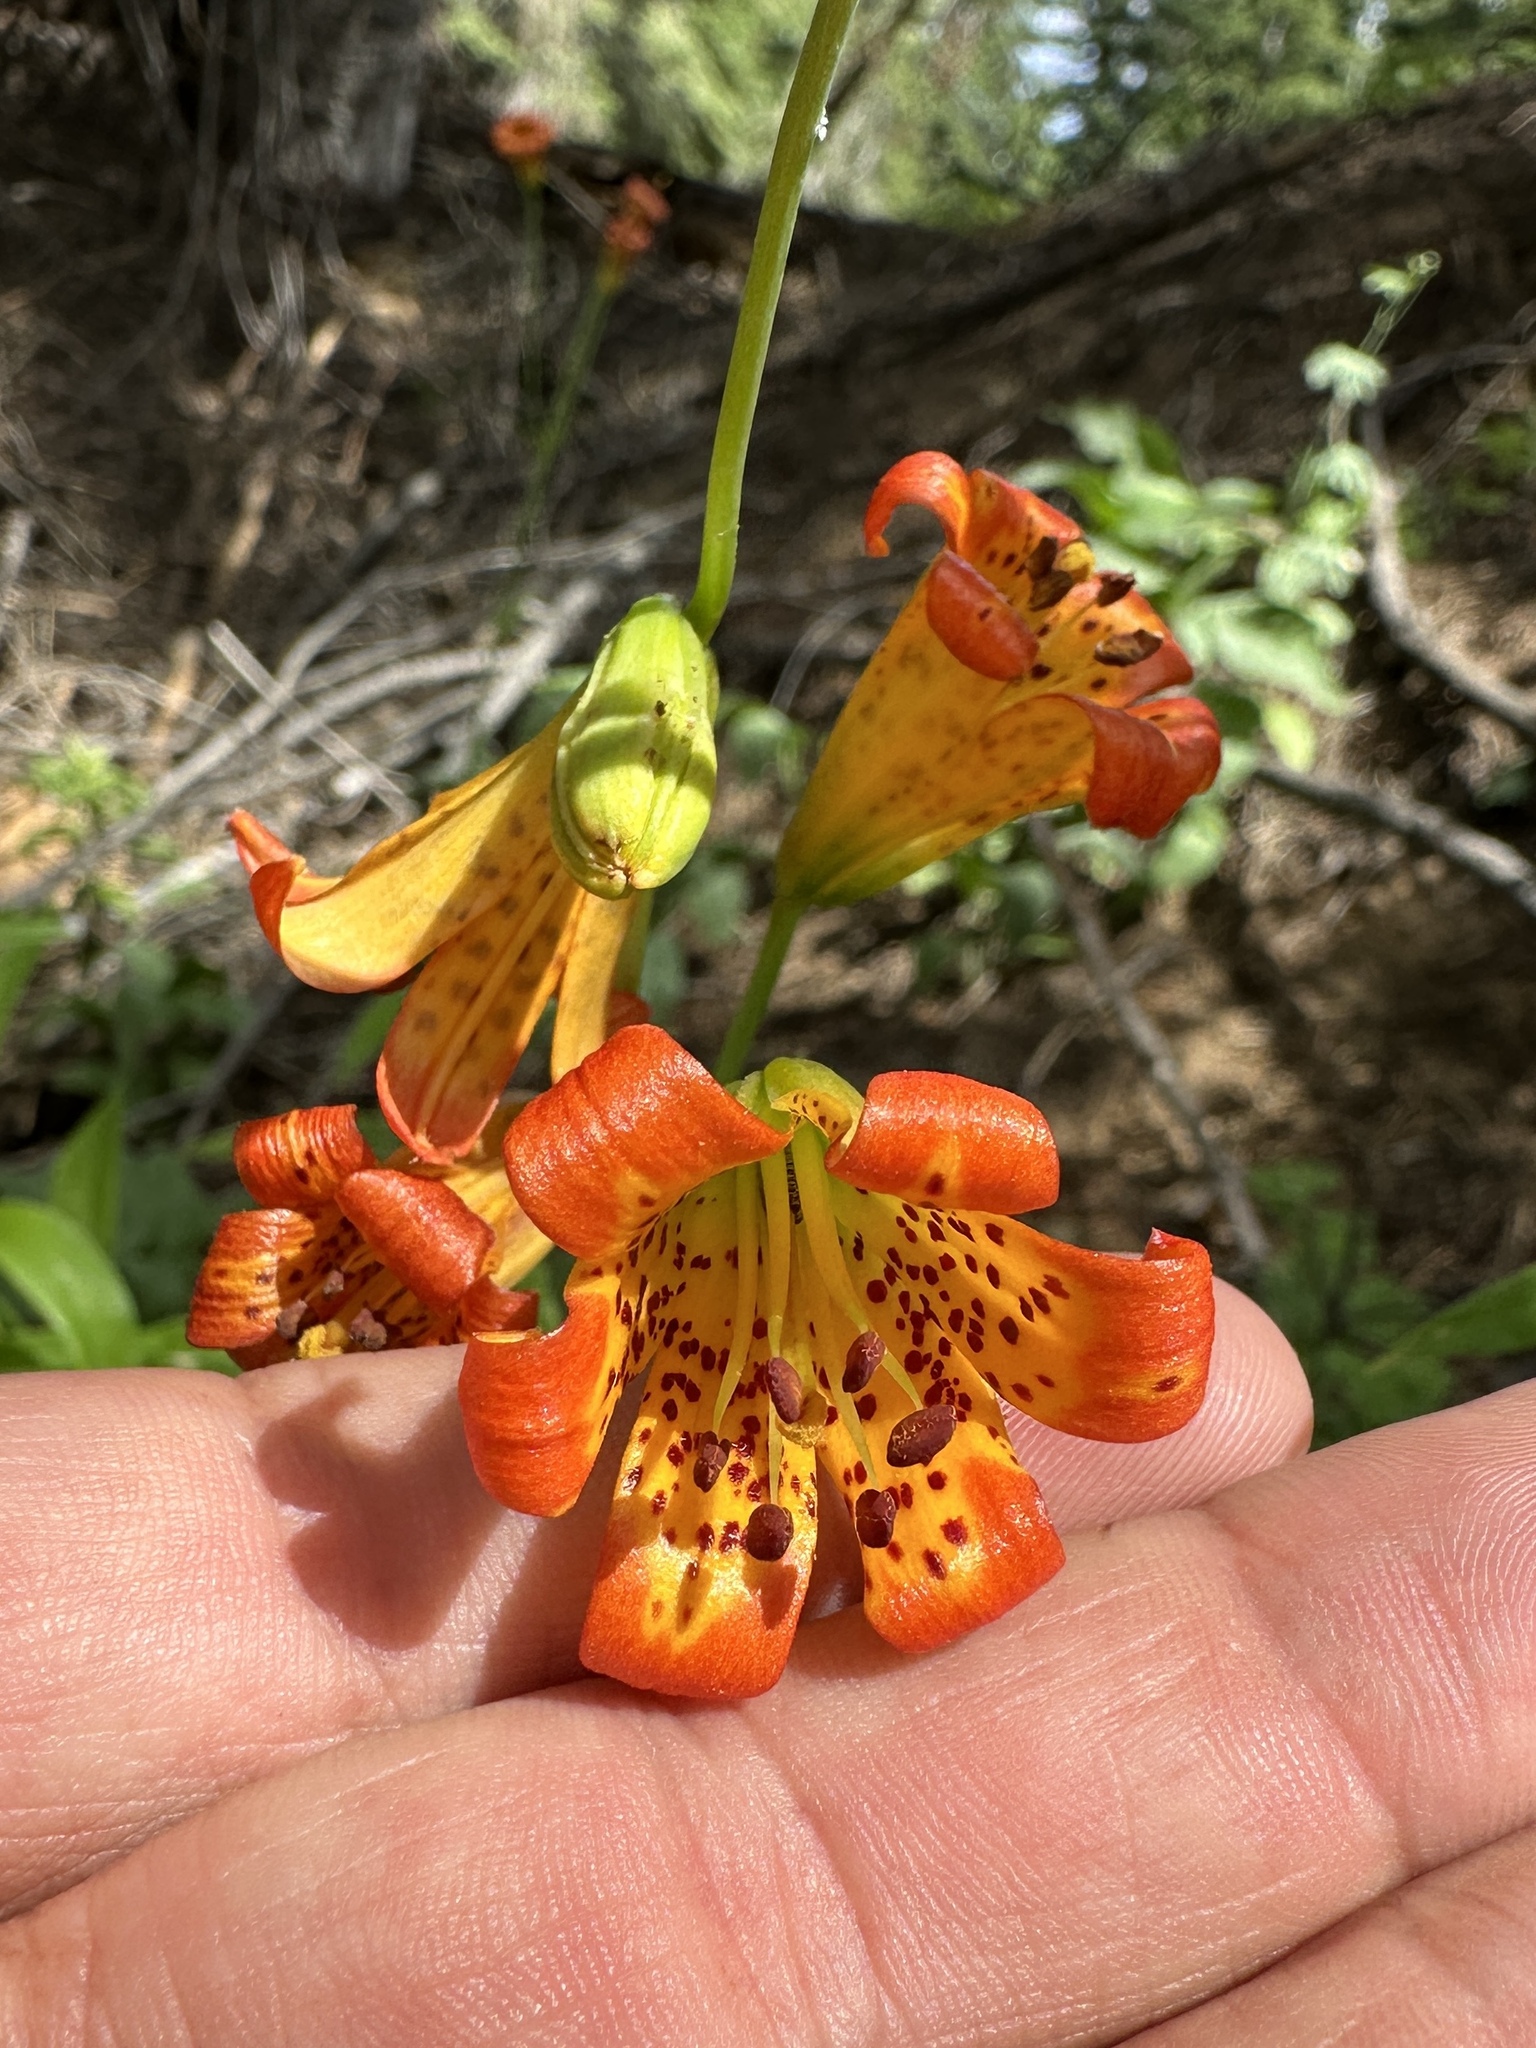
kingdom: Plantae
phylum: Tracheophyta
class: Liliopsida
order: Liliales
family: Liliaceae
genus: Lilium
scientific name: Lilium parvum
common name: Alpine lily
